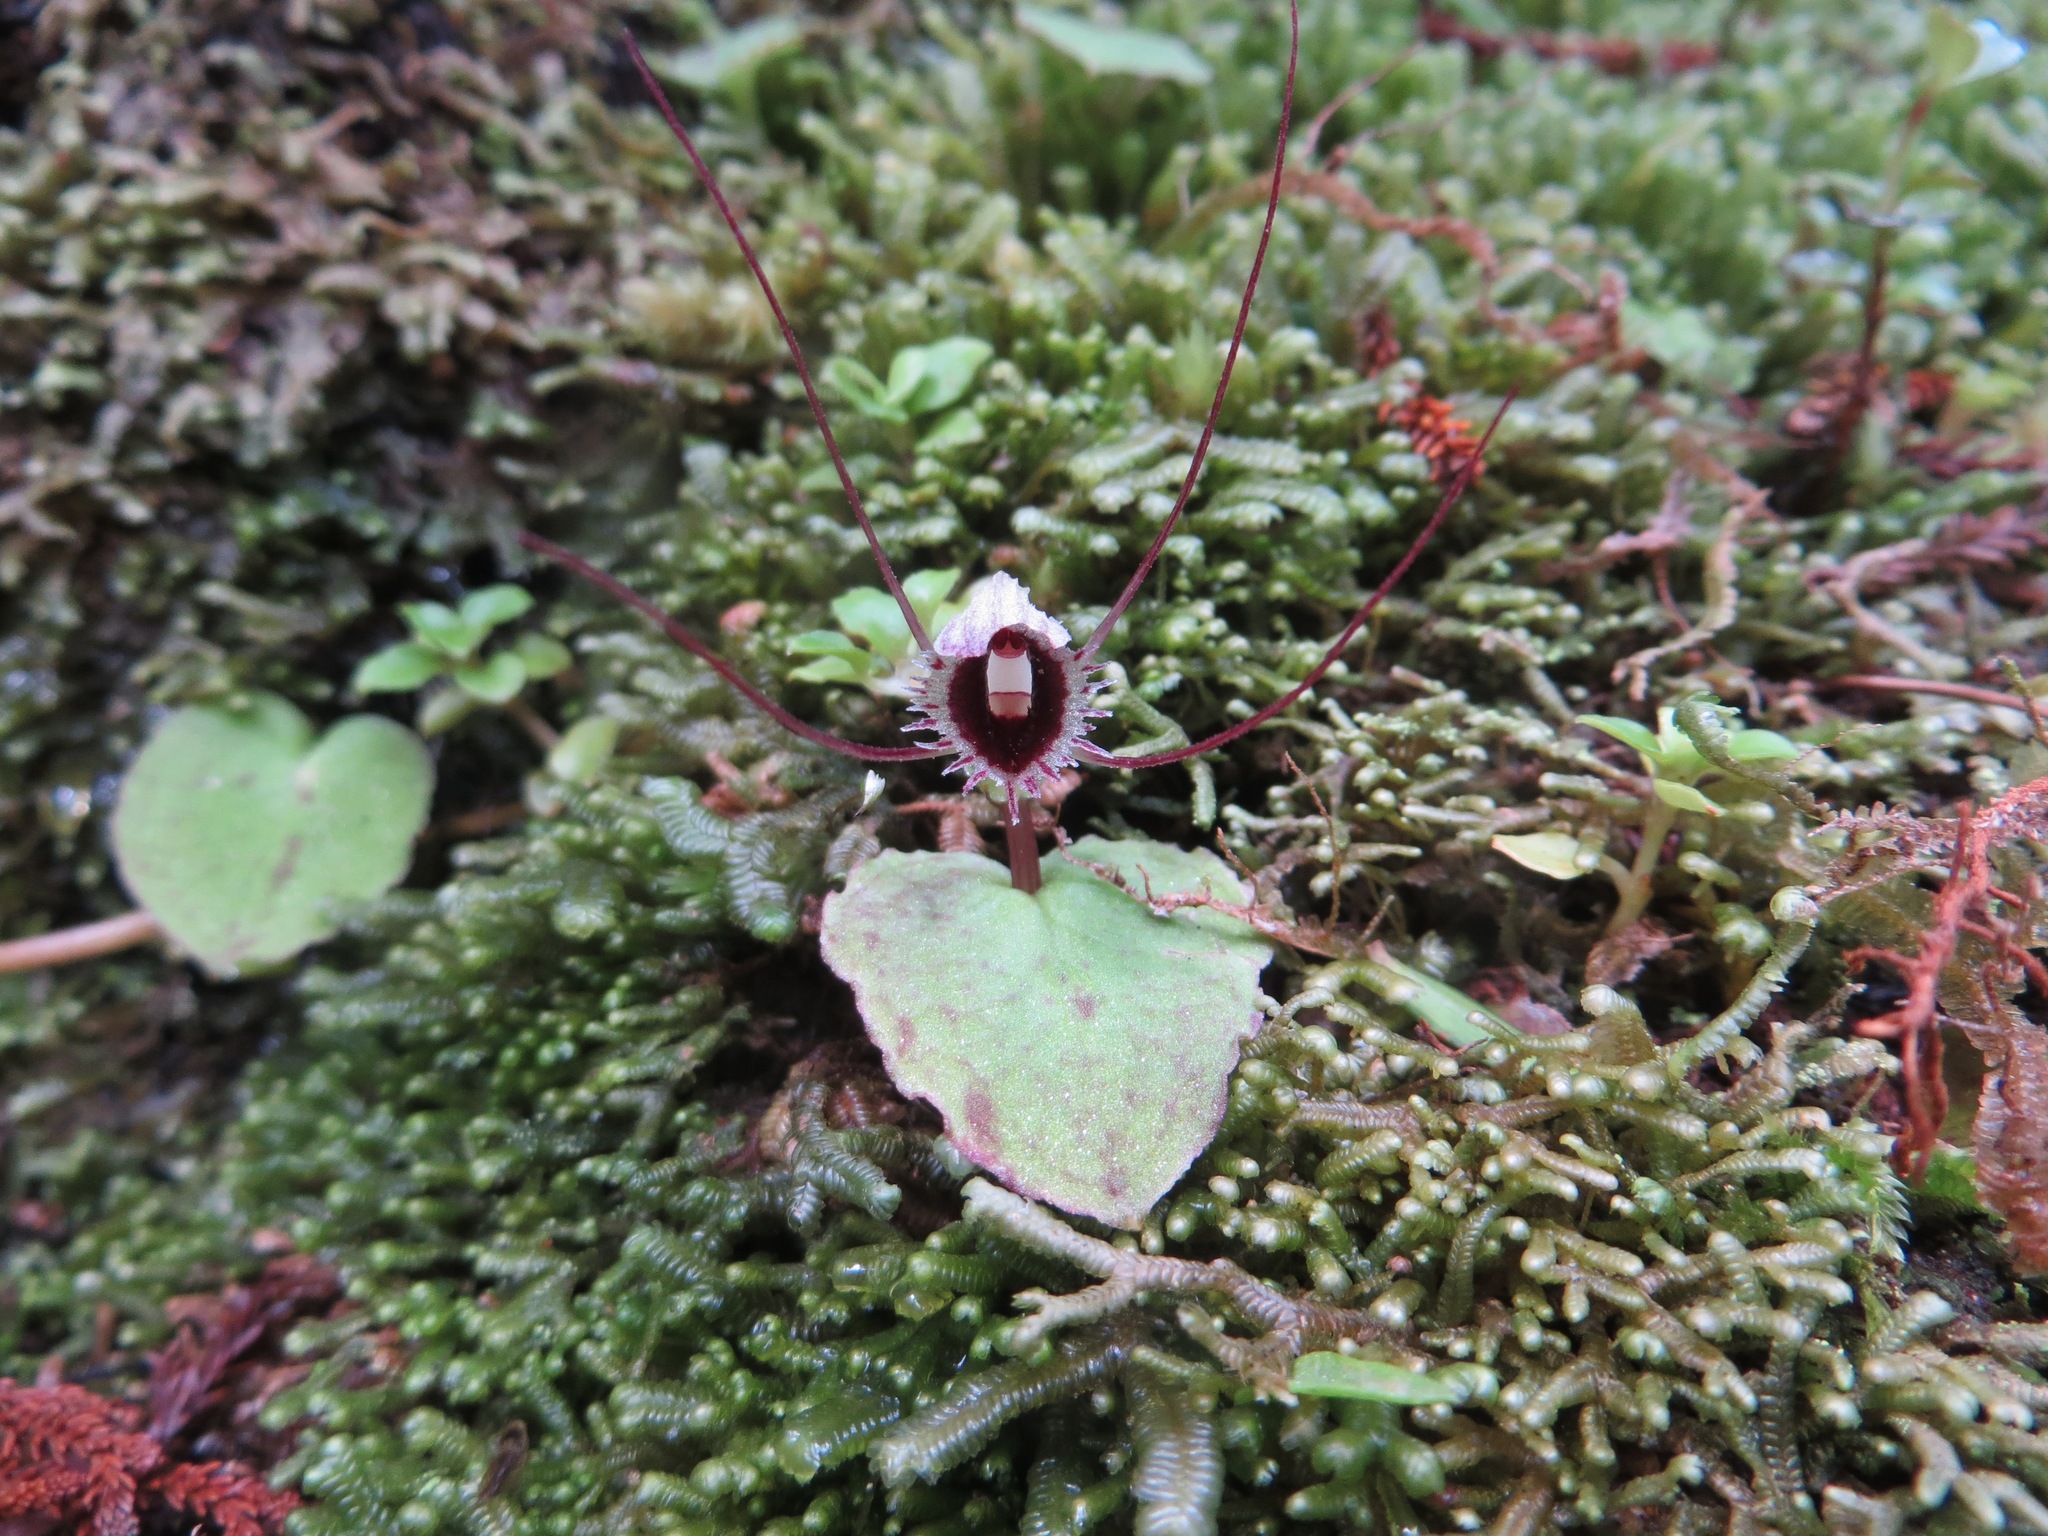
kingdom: Plantae
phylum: Tracheophyta
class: Liliopsida
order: Asparagales
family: Orchidaceae
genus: Corybas
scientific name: Corybas oblongus
